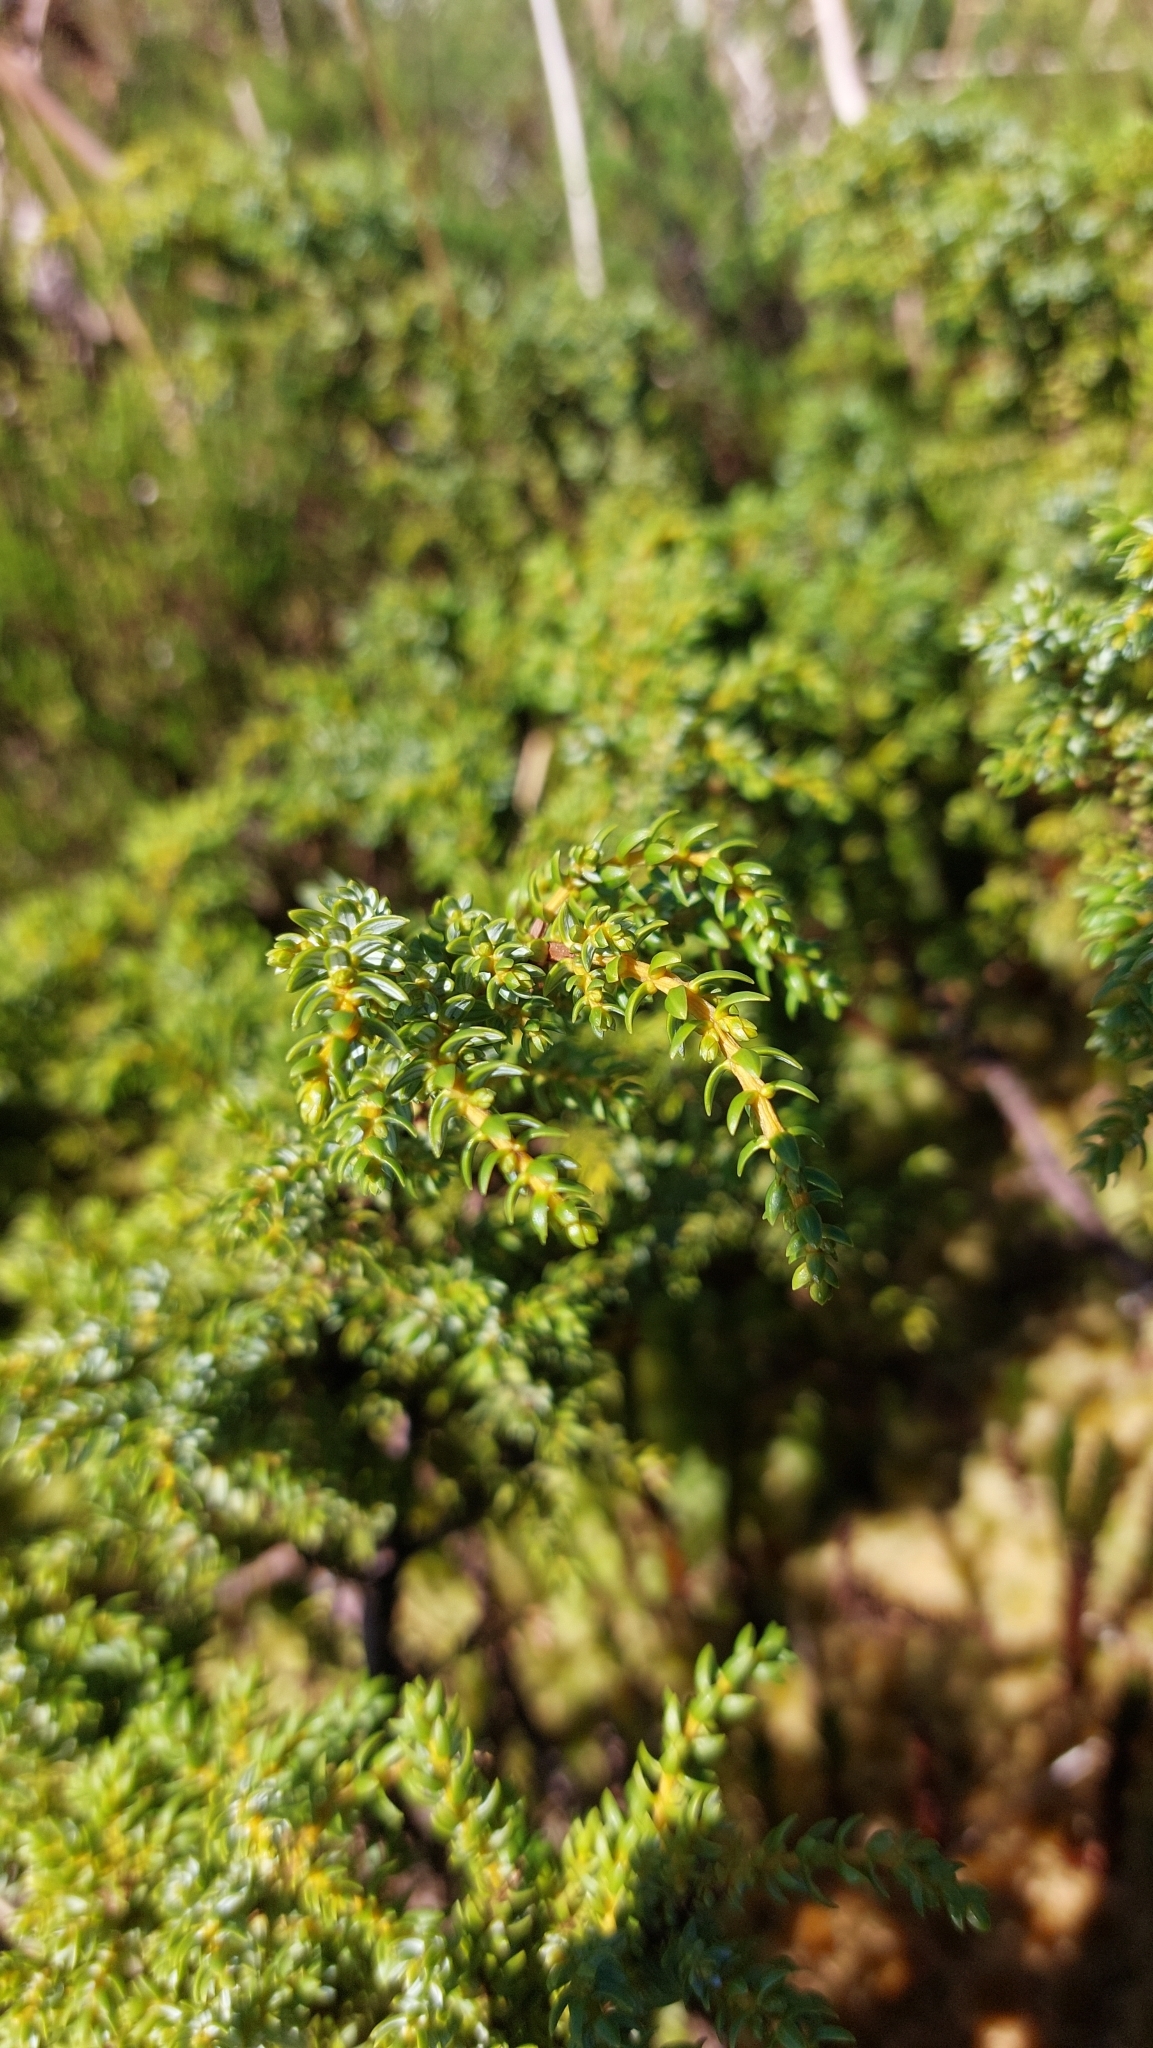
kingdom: Plantae
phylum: Tracheophyta
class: Pinopsida
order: Pinales
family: Cupressaceae
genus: Juniperus
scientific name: Juniperus brevifolia
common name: Azores juniper
